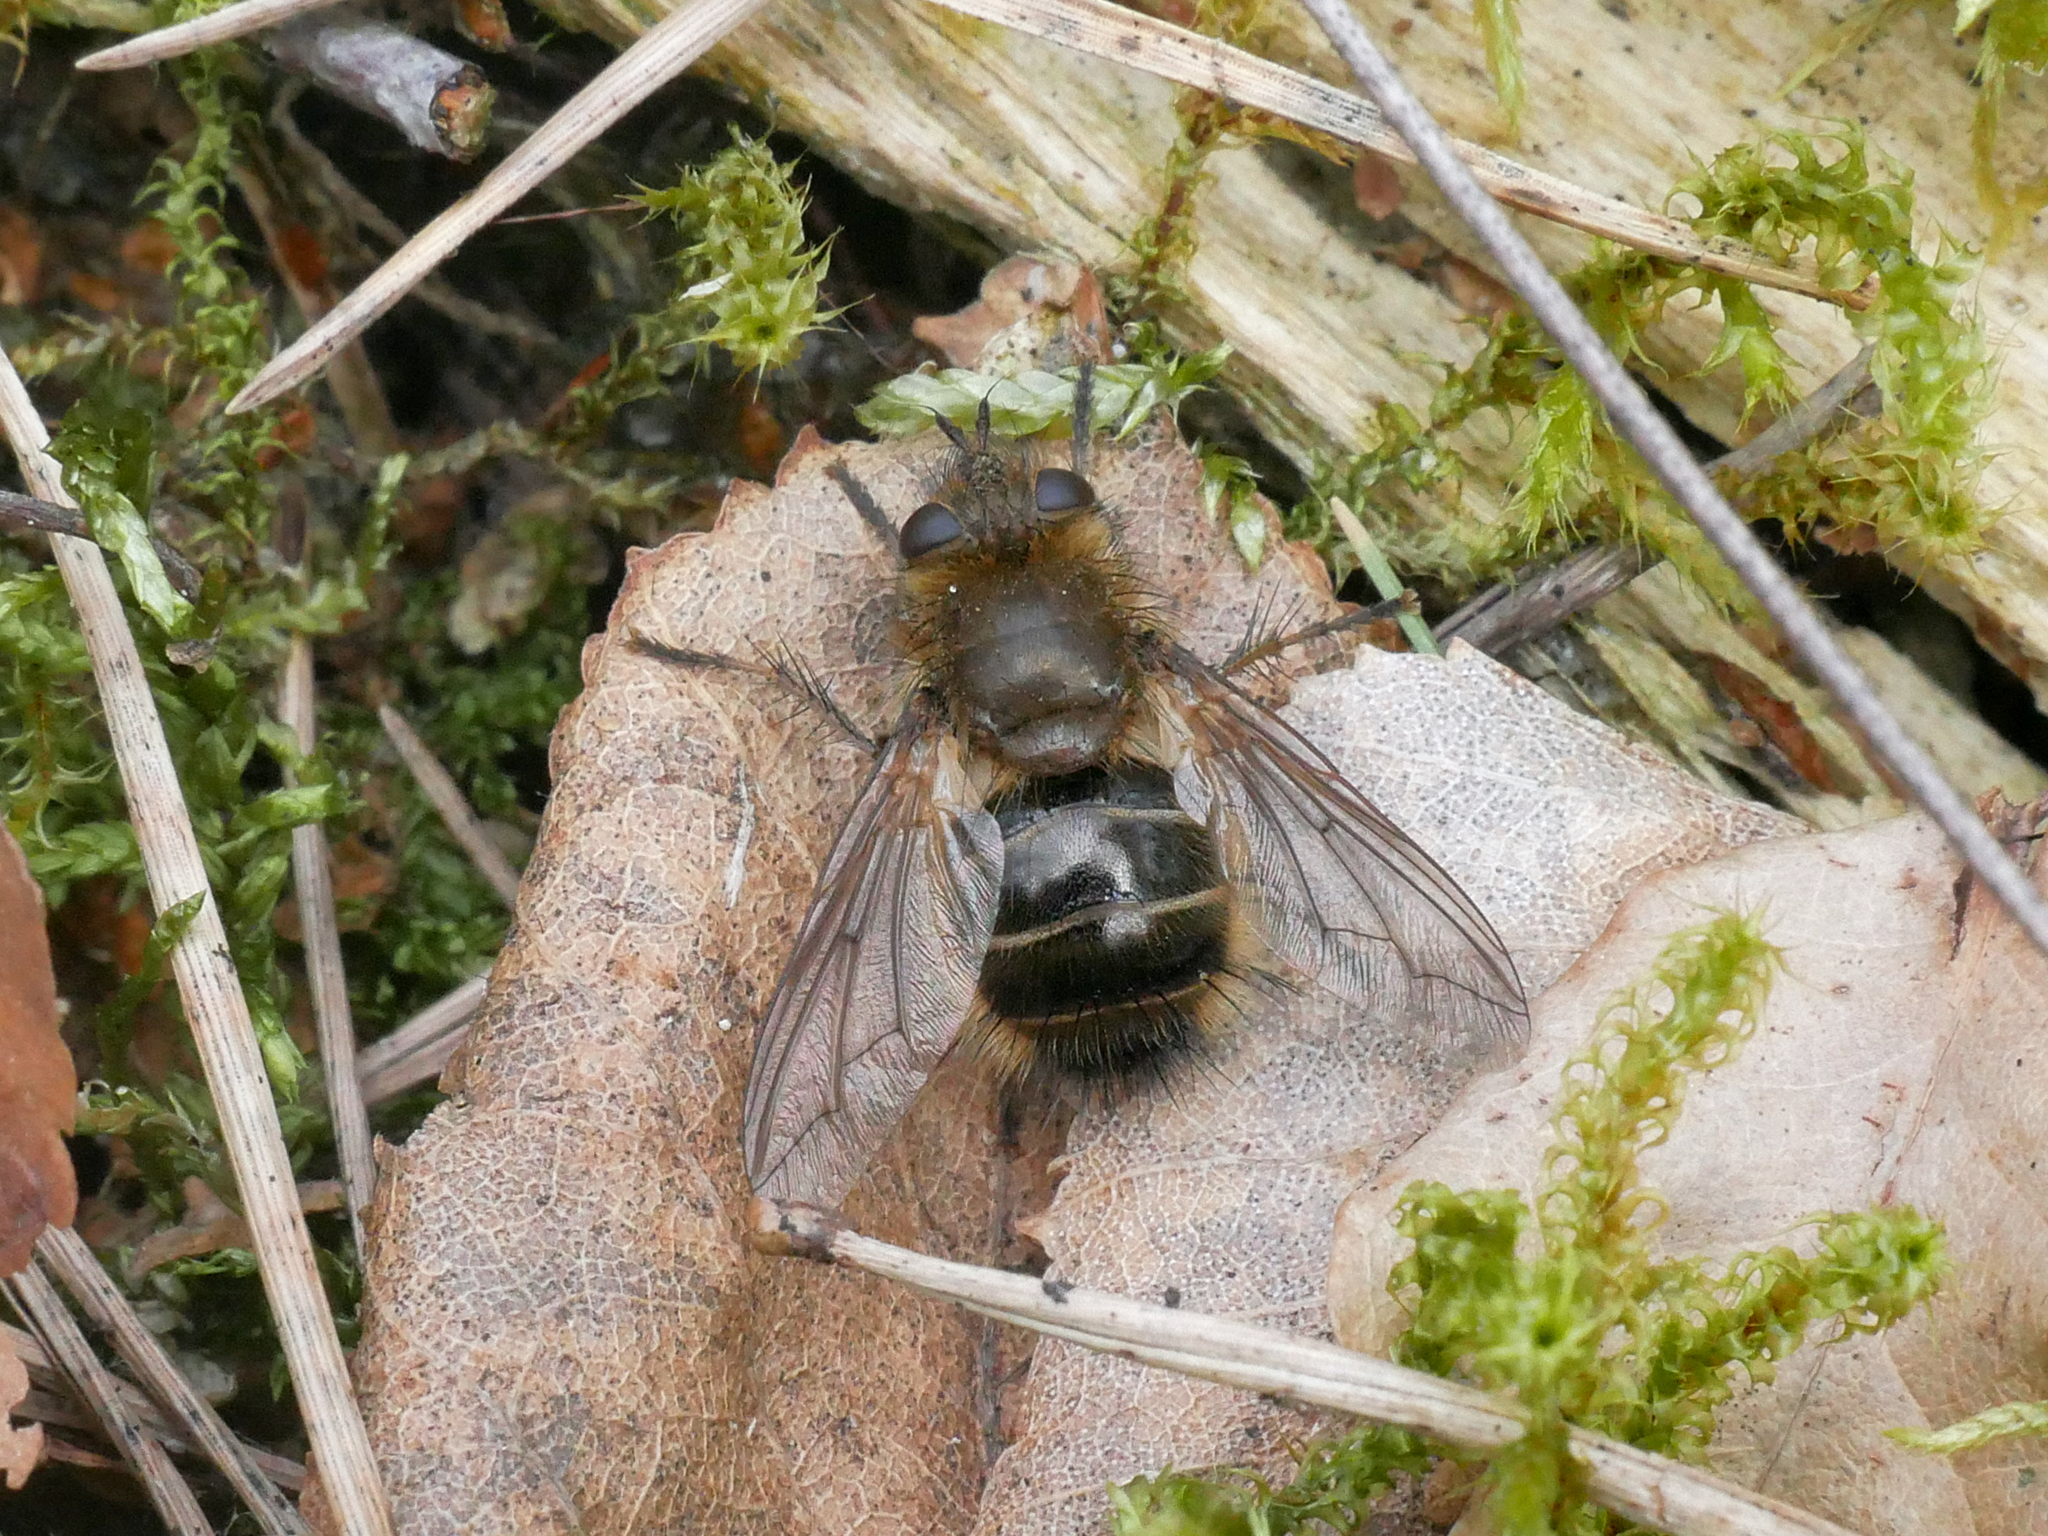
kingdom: Animalia
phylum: Arthropoda
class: Insecta
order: Diptera
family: Tachinidae
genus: Tachina
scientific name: Tachina ursina
